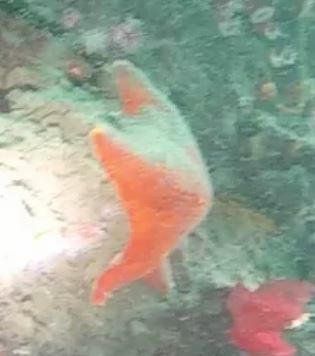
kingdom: Animalia
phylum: Echinodermata
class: Asteroidea
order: Valvatida
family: Asterinidae
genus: Patiria
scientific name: Patiria miniata
